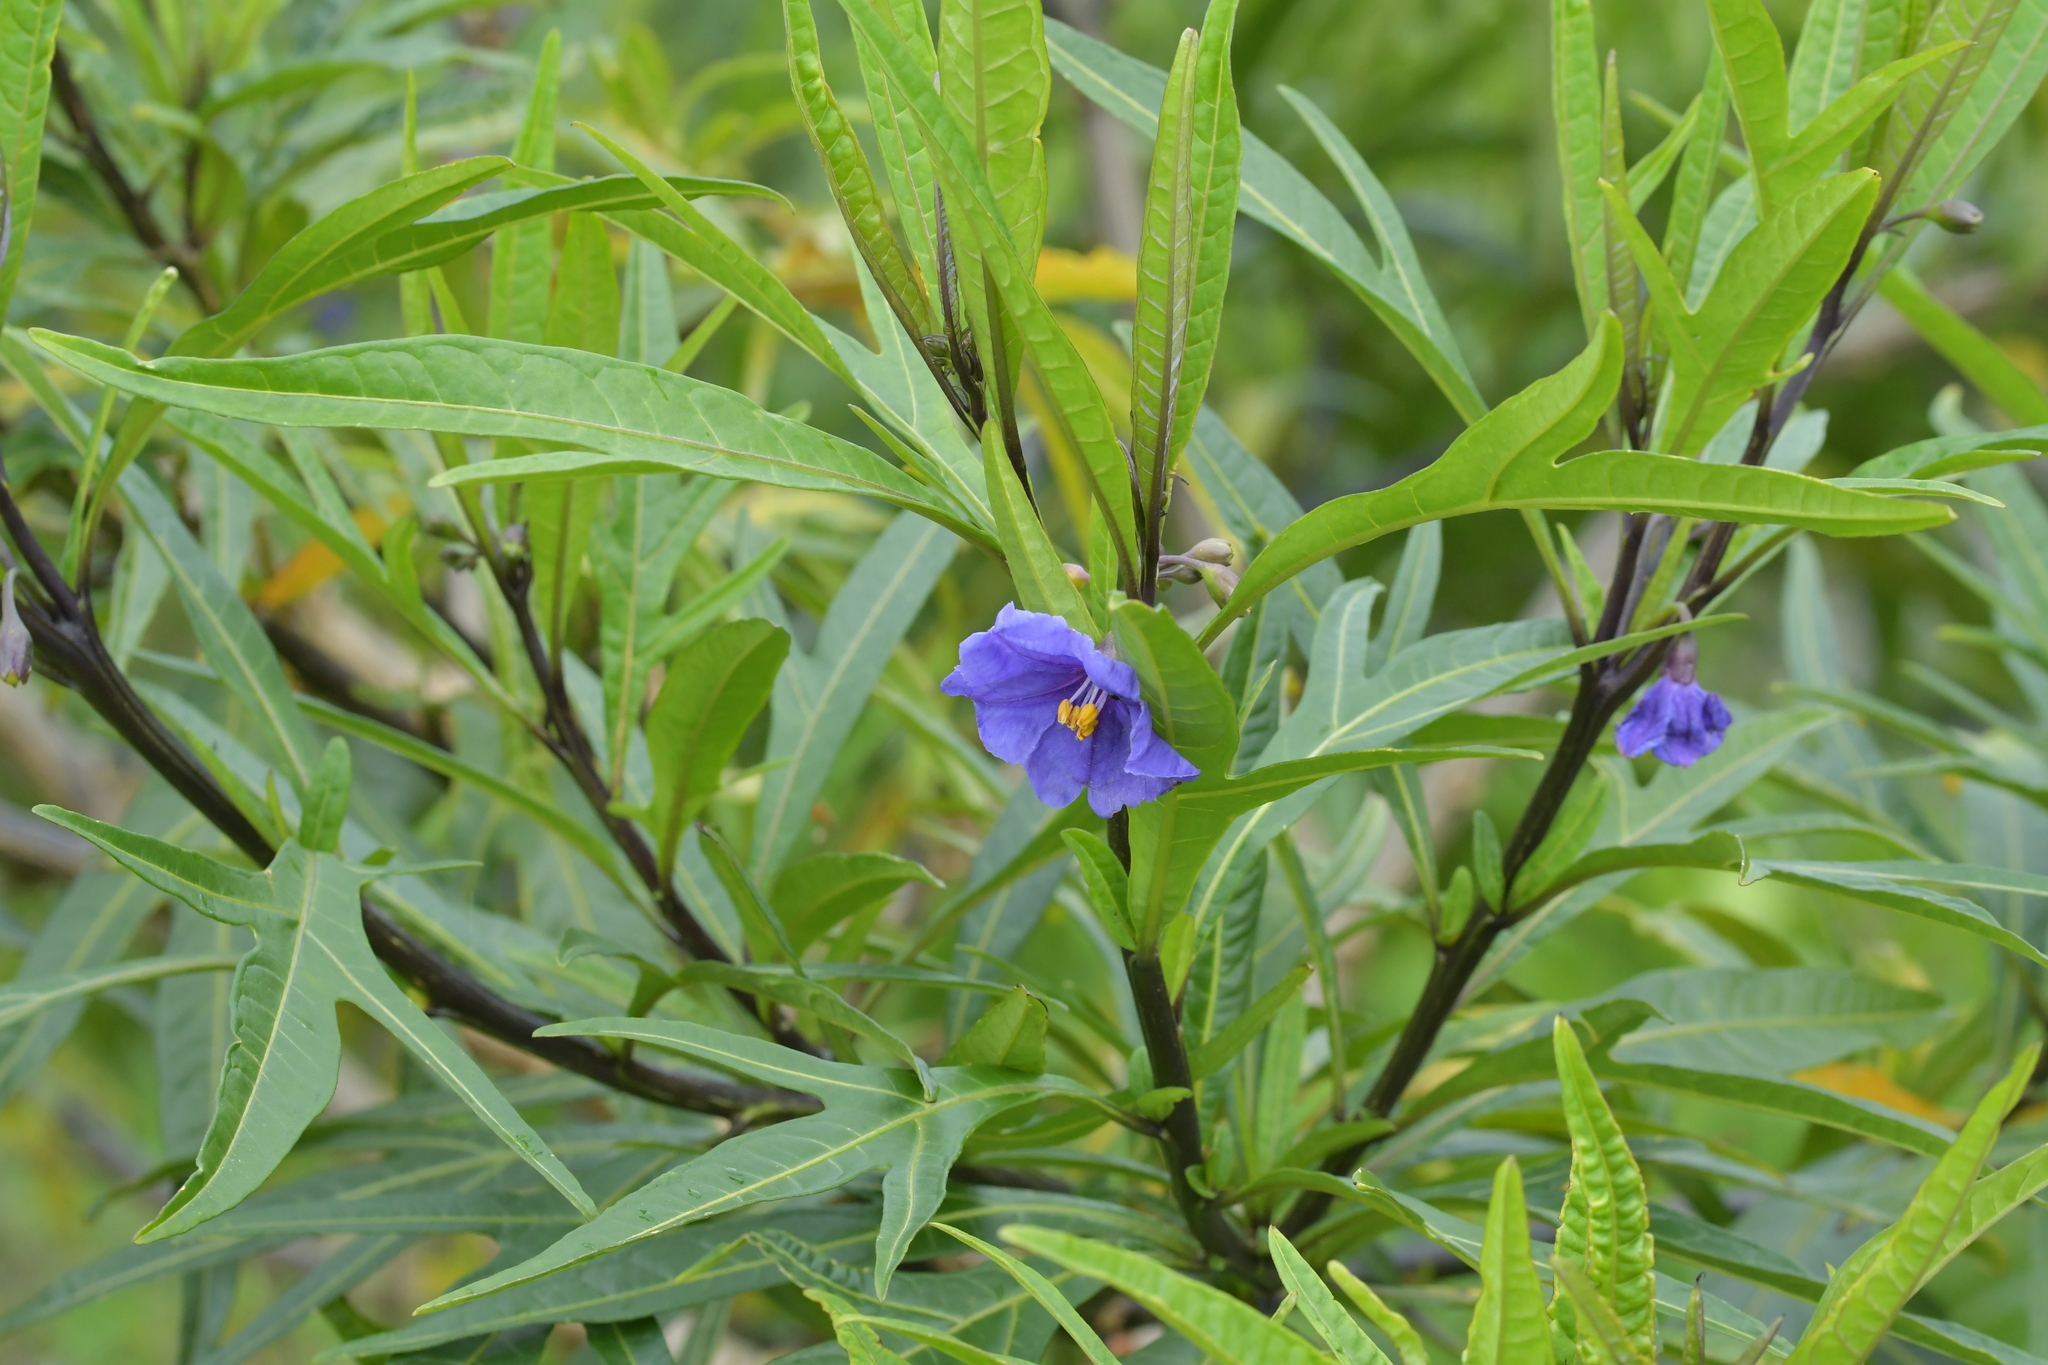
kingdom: Plantae
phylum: Tracheophyta
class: Magnoliopsida
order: Solanales
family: Solanaceae
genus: Solanum
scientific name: Solanum laciniatum
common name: Kangaroo-apple
